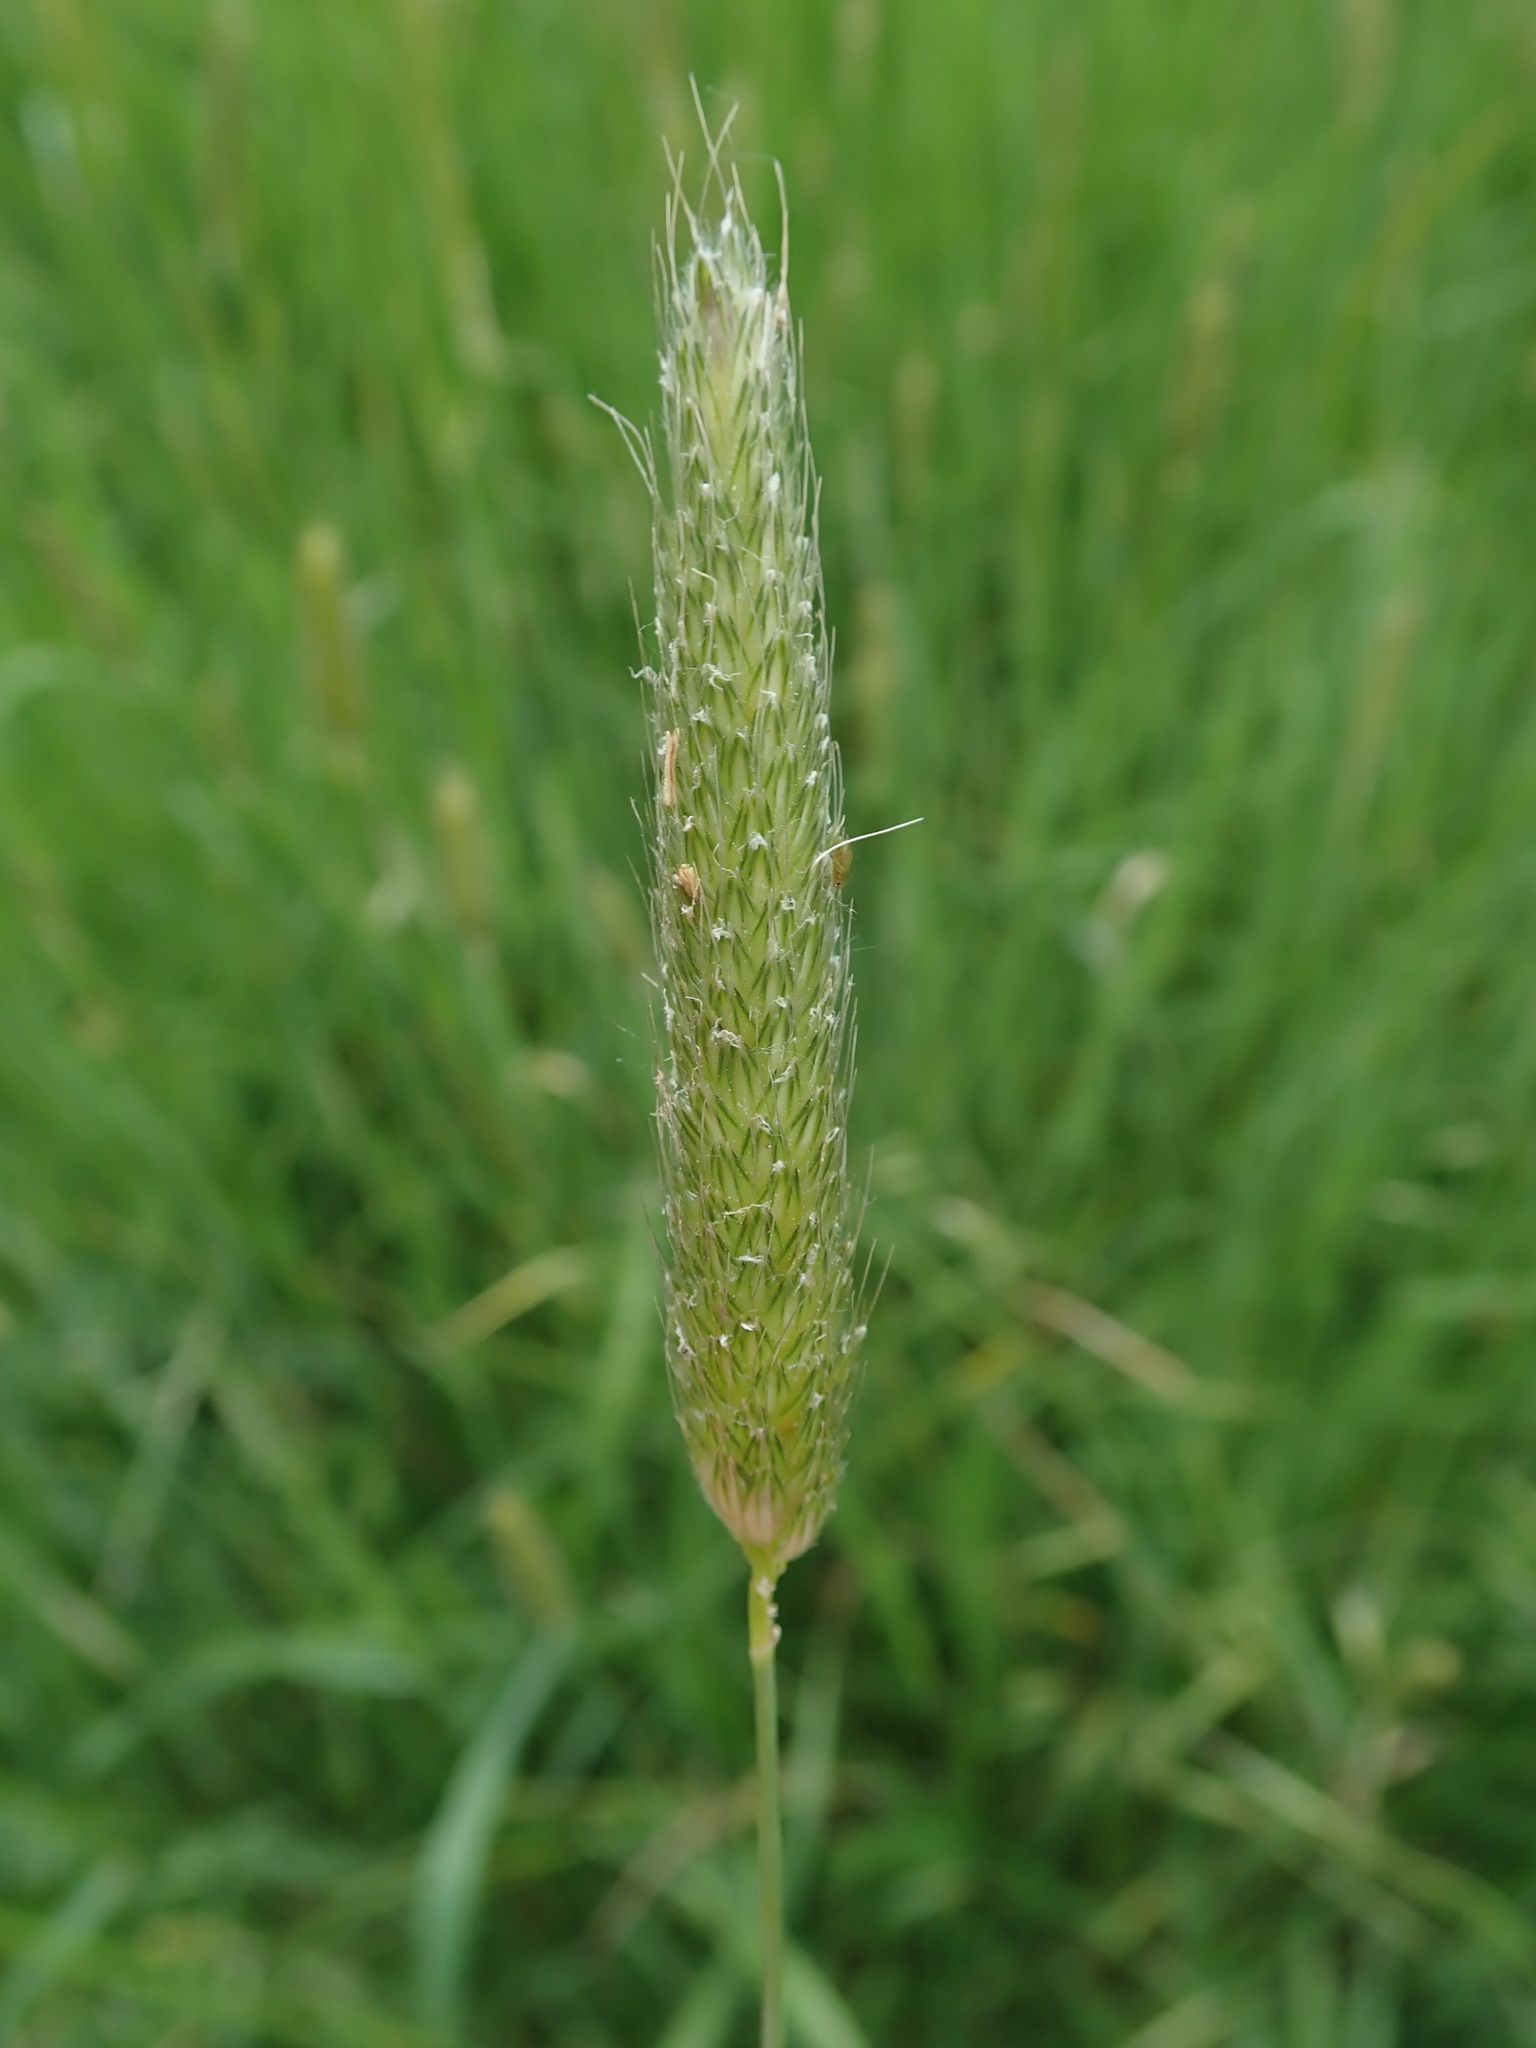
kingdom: Plantae
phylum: Tracheophyta
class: Liliopsida
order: Poales
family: Poaceae
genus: Alopecurus
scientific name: Alopecurus pratensis
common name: Meadow foxtail
